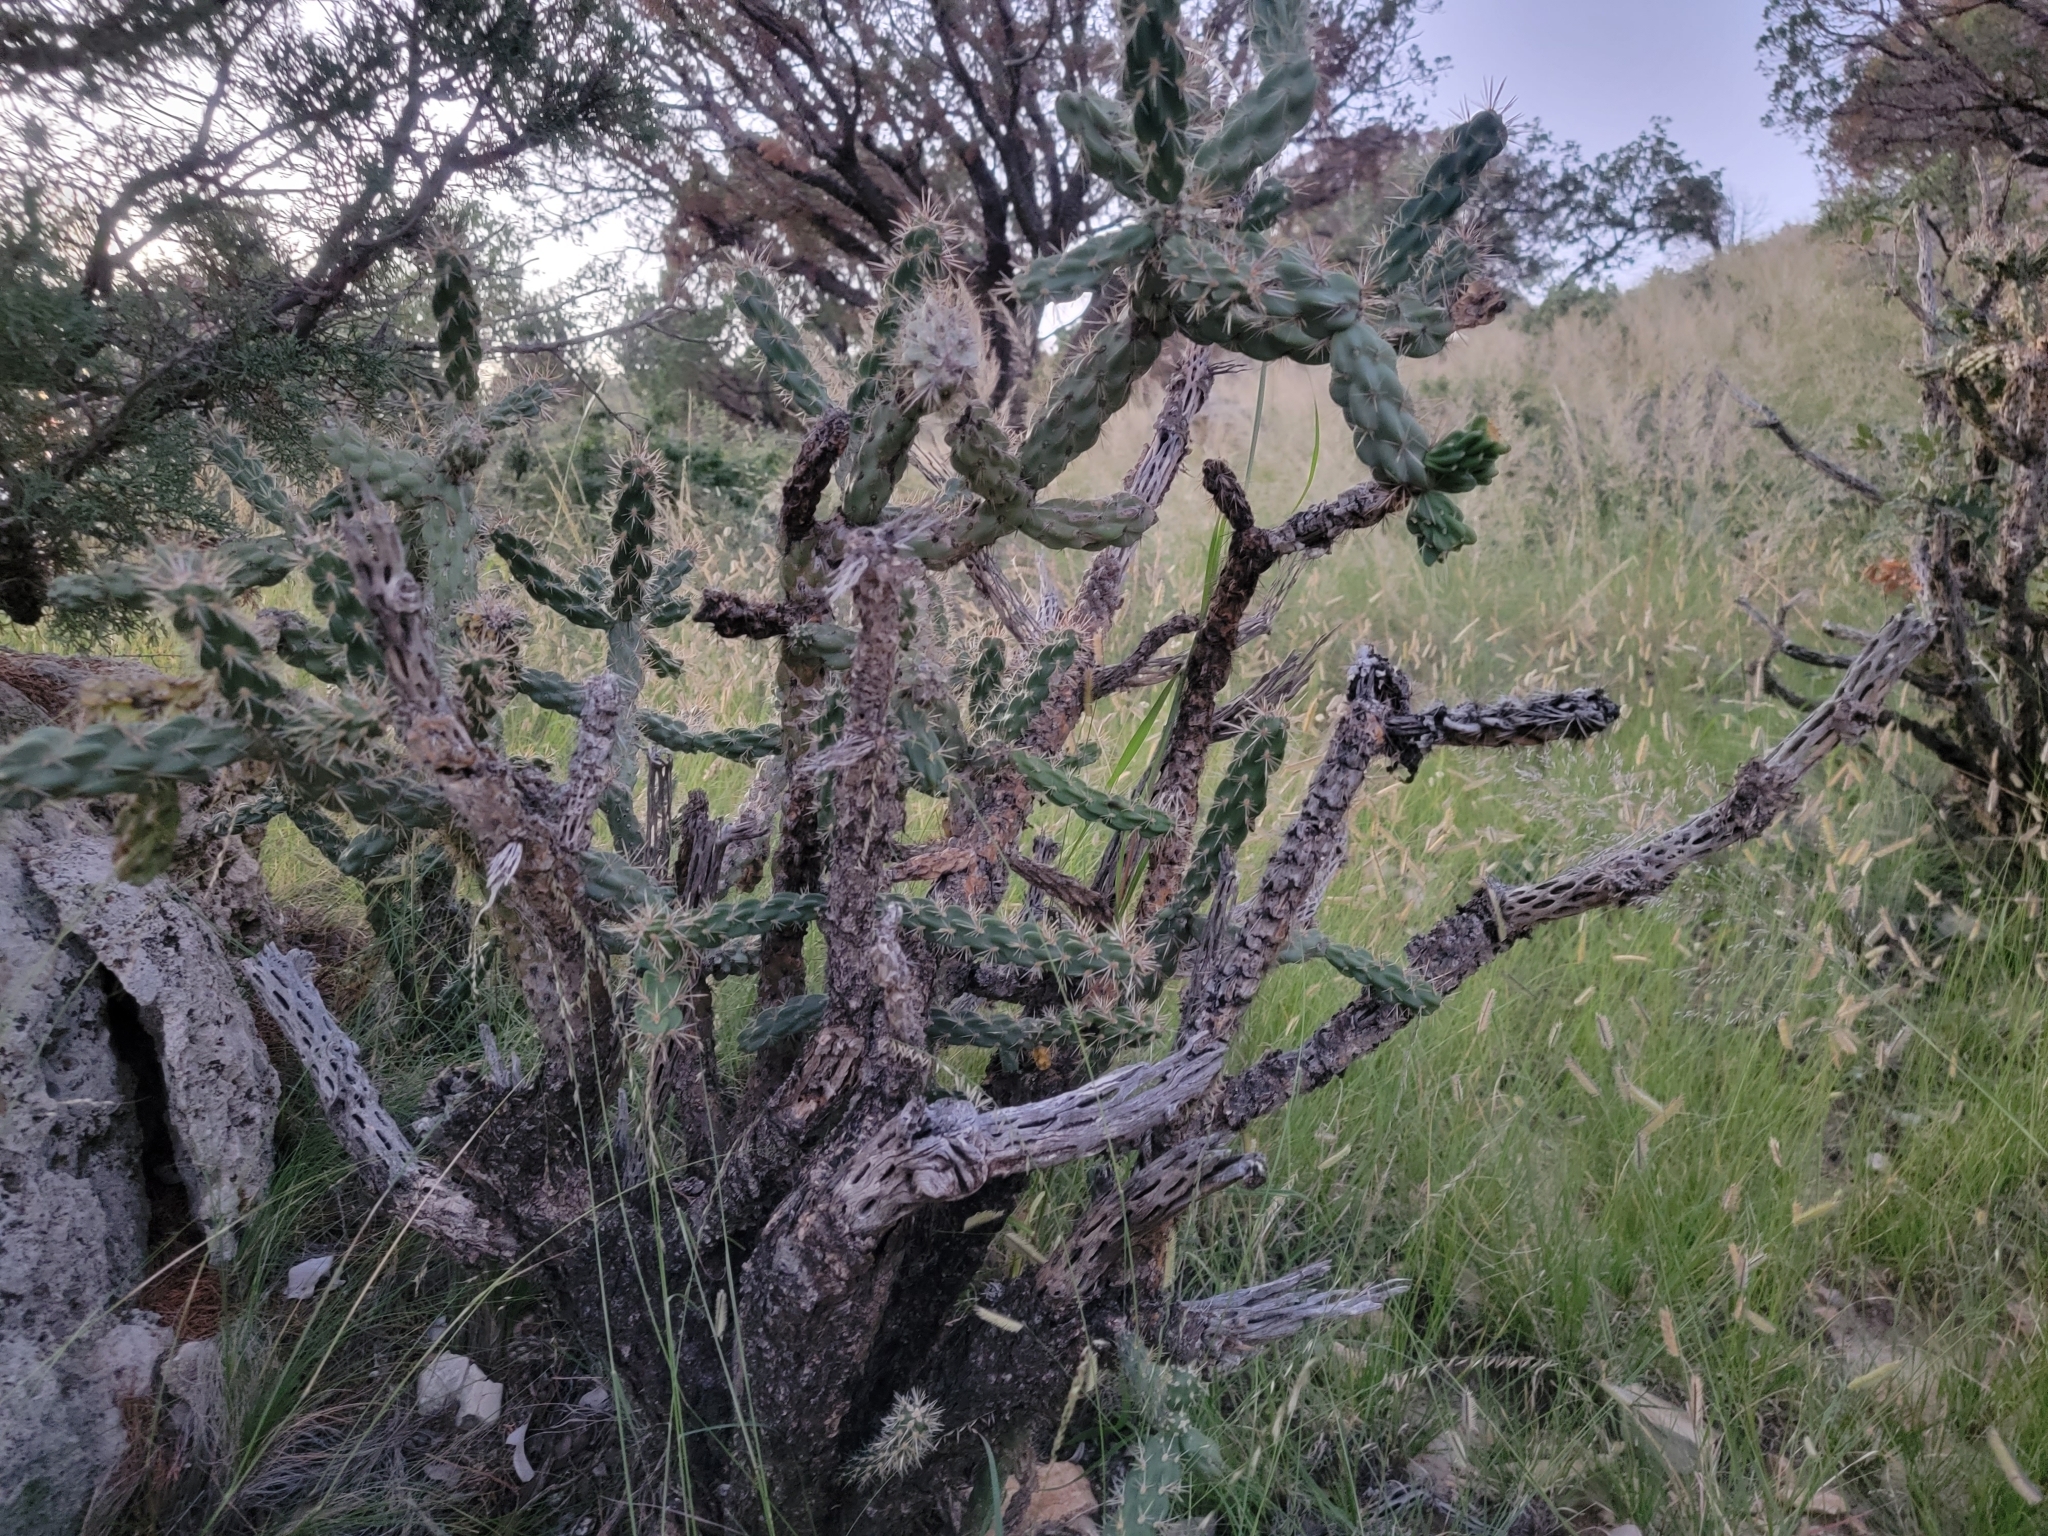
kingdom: Plantae
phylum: Tracheophyta
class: Magnoliopsida
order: Caryophyllales
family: Cactaceae
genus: Cylindropuntia
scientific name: Cylindropuntia imbricata
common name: Candelabrum cactus
